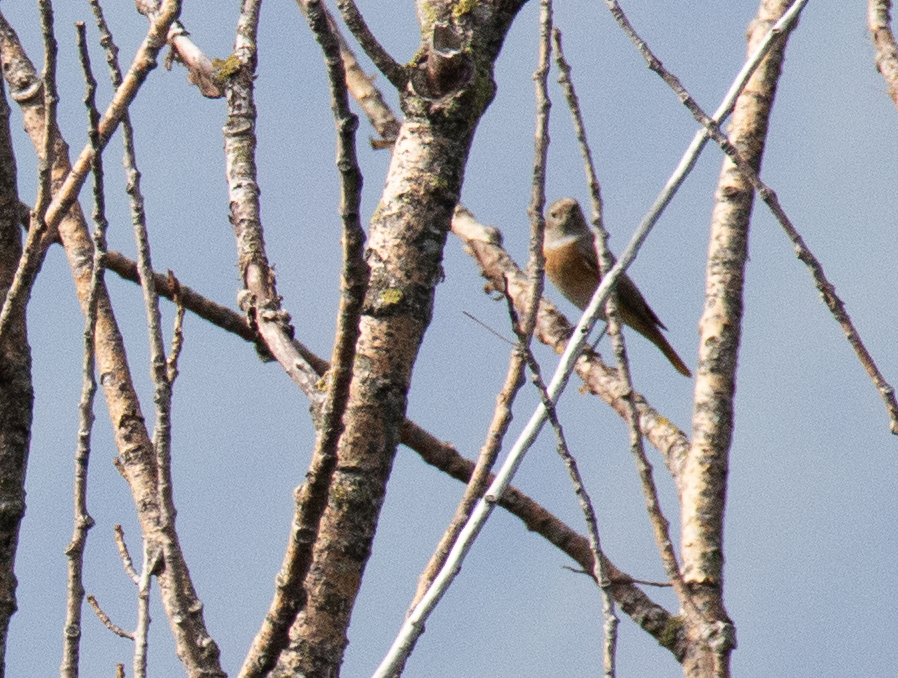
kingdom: Animalia
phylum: Chordata
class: Aves
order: Passeriformes
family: Muscicapidae
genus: Phoenicurus
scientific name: Phoenicurus phoenicurus
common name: Common redstart
